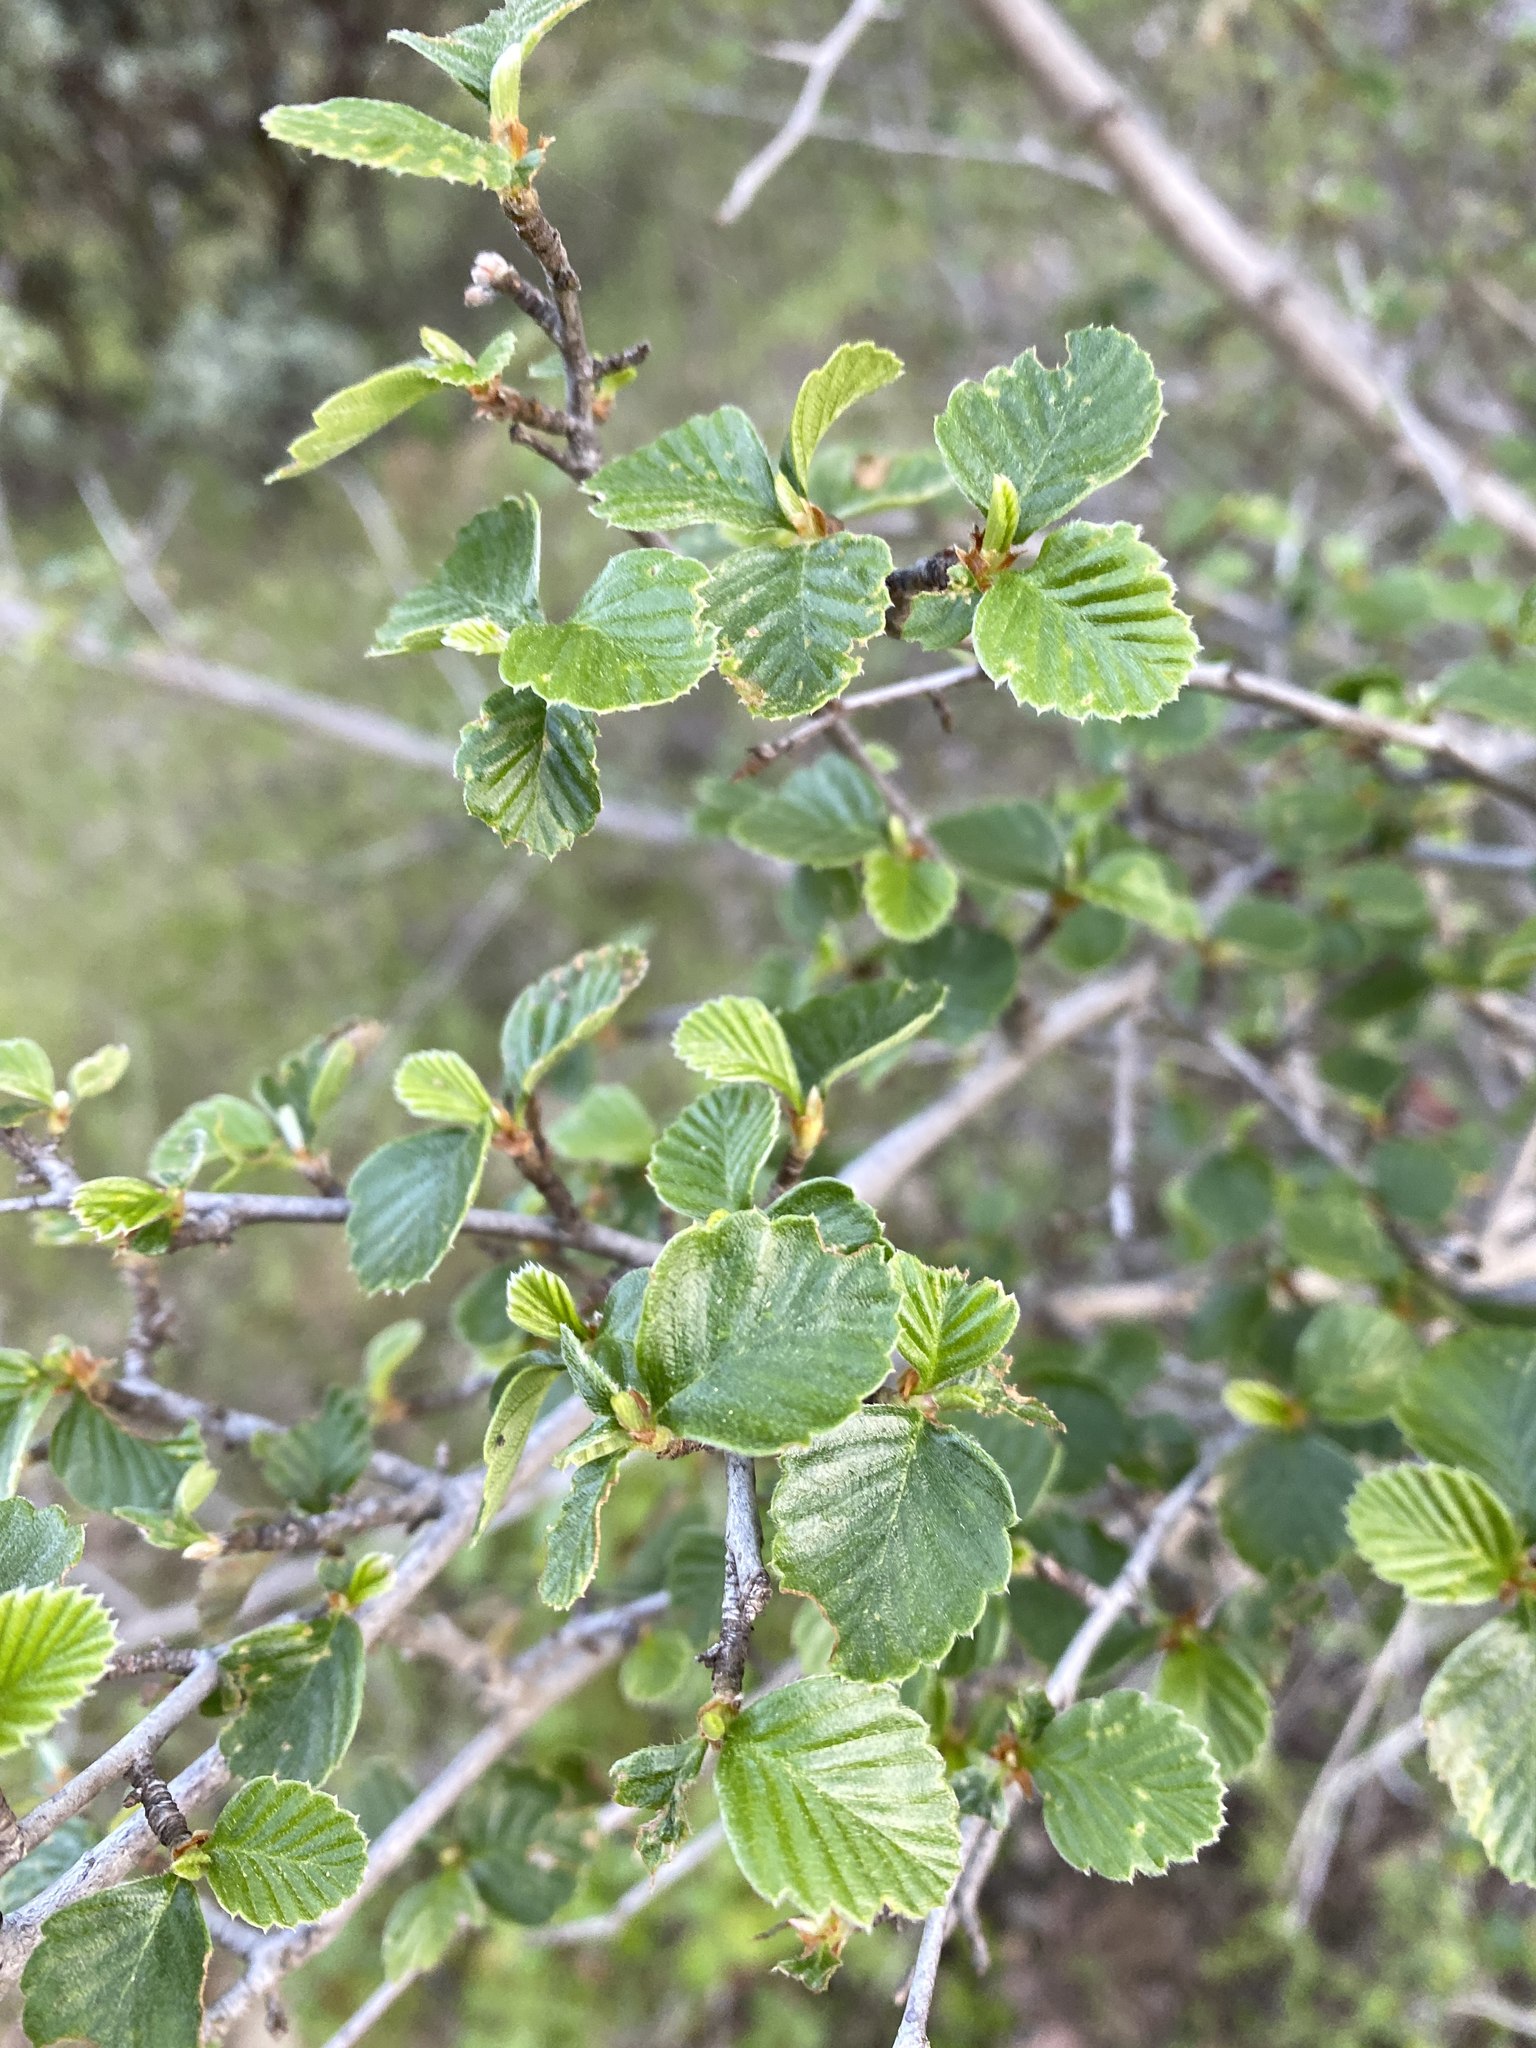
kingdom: Plantae
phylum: Tracheophyta
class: Magnoliopsida
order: Rosales
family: Rosaceae
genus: Cercocarpus
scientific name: Cercocarpus betuloides
